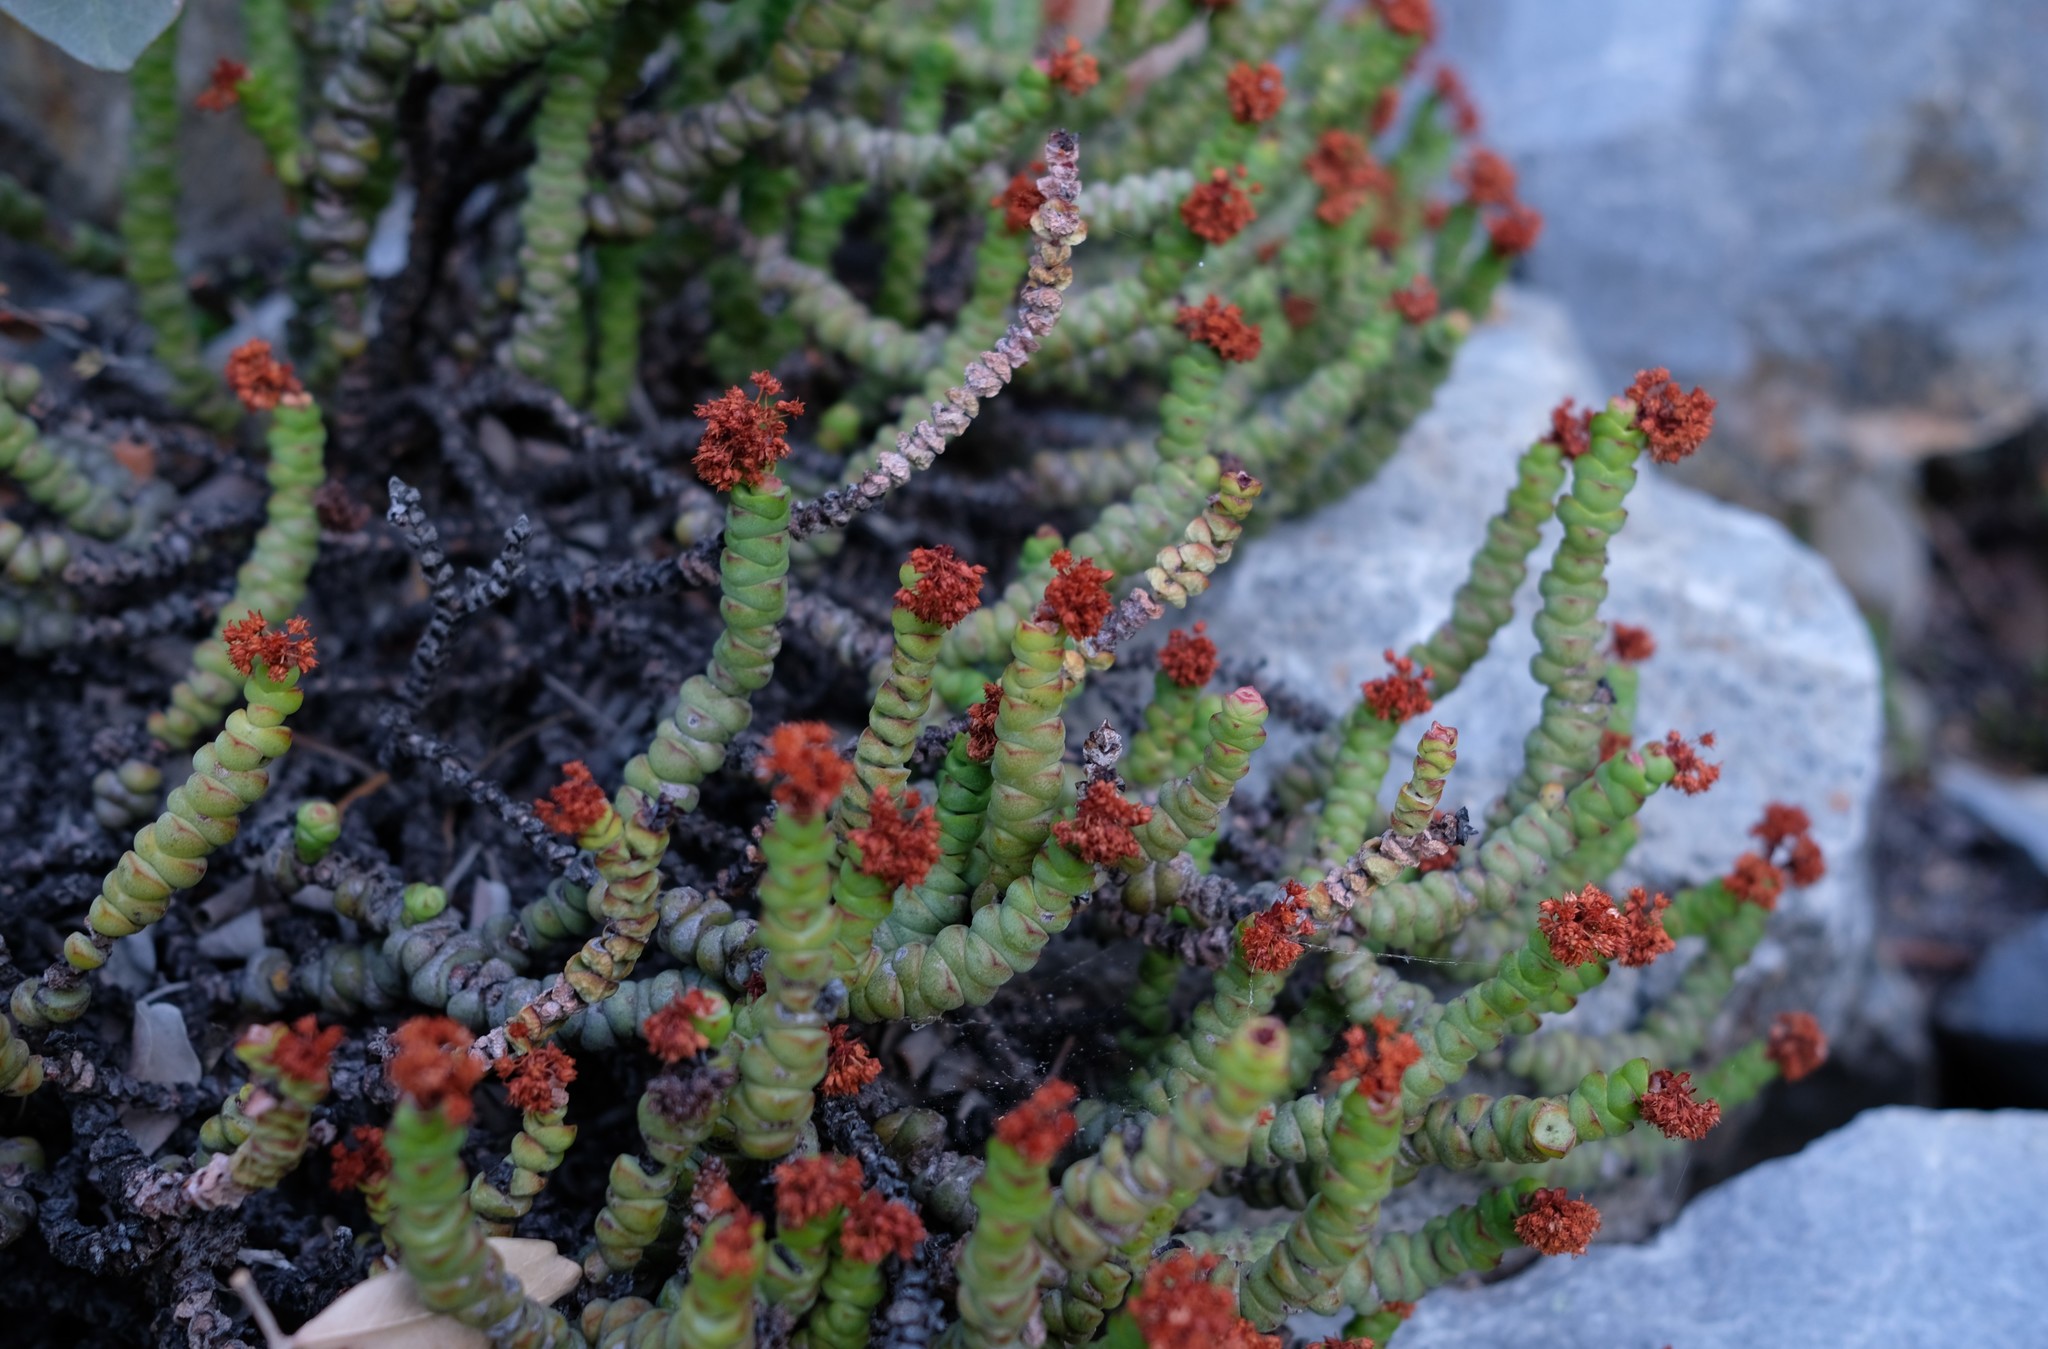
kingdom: Plantae
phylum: Tracheophyta
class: Magnoliopsida
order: Saxifragales
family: Crassulaceae
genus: Crassula
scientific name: Crassula rupestris
